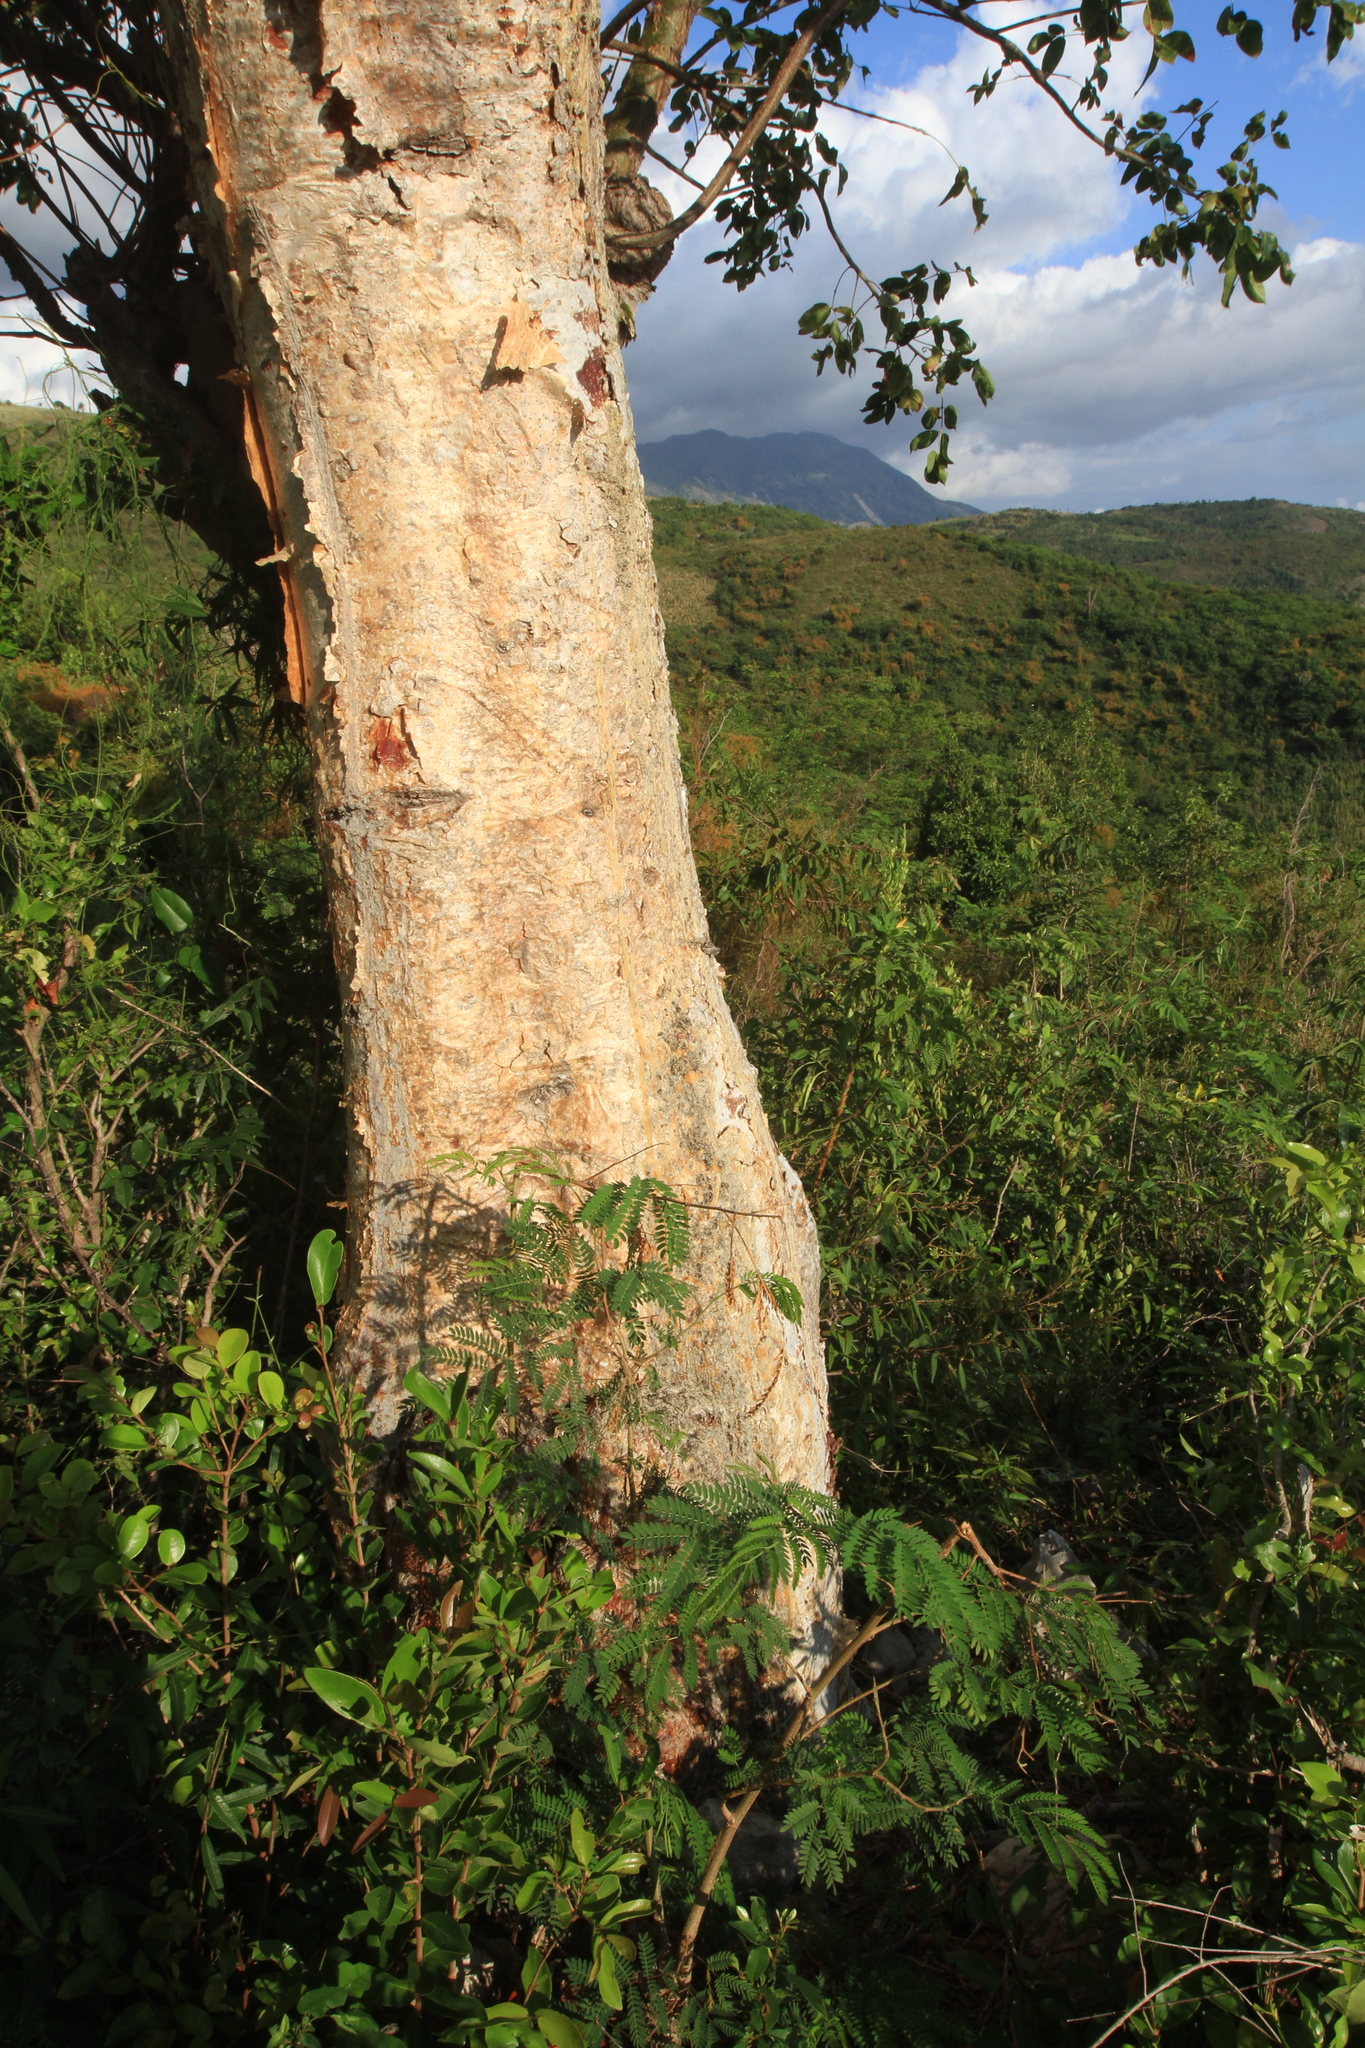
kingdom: Plantae
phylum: Tracheophyta
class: Magnoliopsida
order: Sapindales
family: Burseraceae
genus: Bursera
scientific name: Bursera simaruba
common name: Turpentine tree
